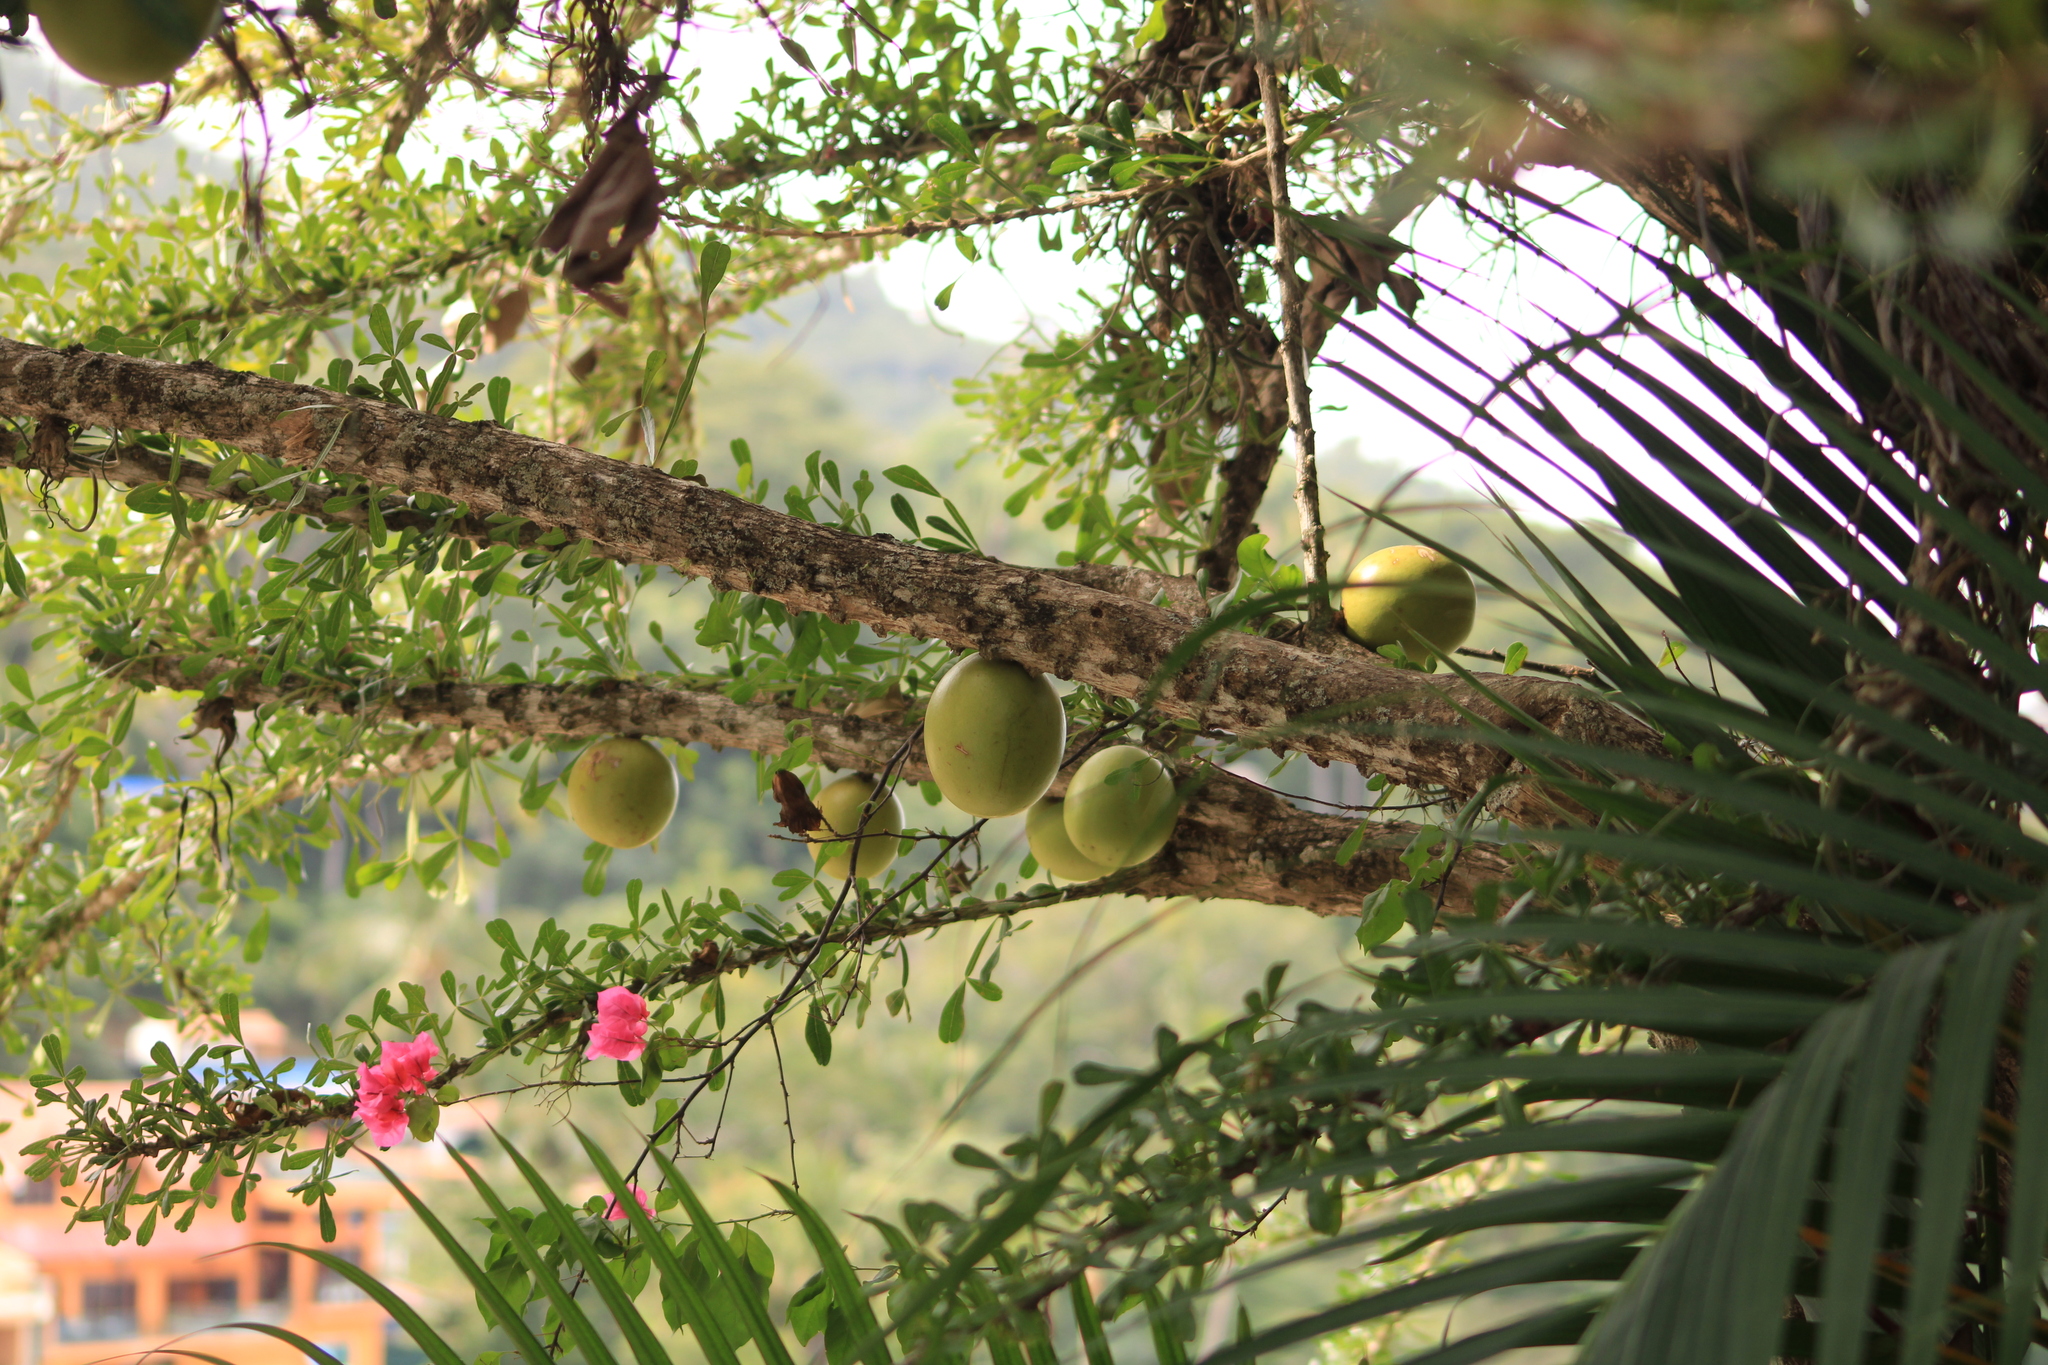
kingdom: Plantae
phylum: Tracheophyta
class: Magnoliopsida
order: Lamiales
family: Bignoniaceae
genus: Crescentia
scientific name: Crescentia alata
